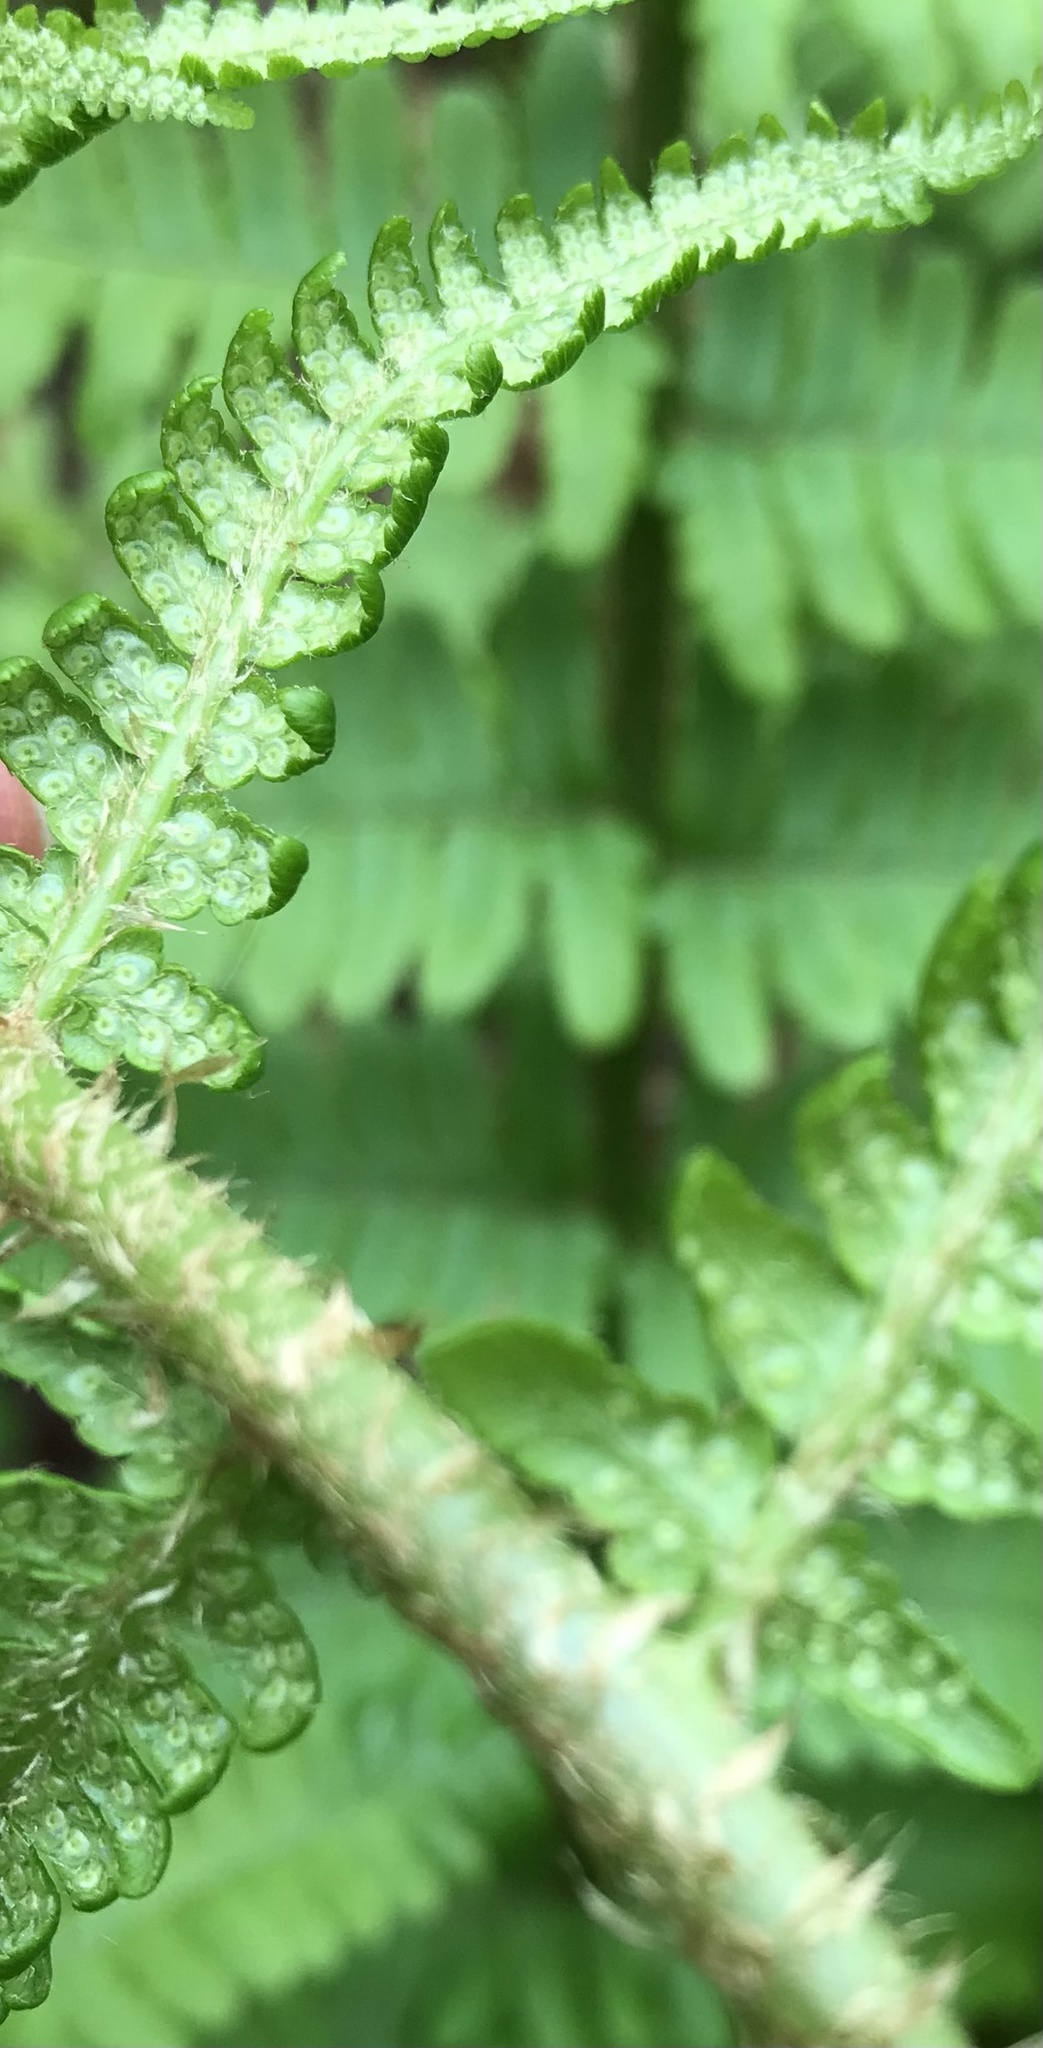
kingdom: Plantae
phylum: Tracheophyta
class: Polypodiopsida
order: Polypodiales
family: Dryopteridaceae
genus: Dryopteris
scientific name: Dryopteris filix-mas
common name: Male fern
